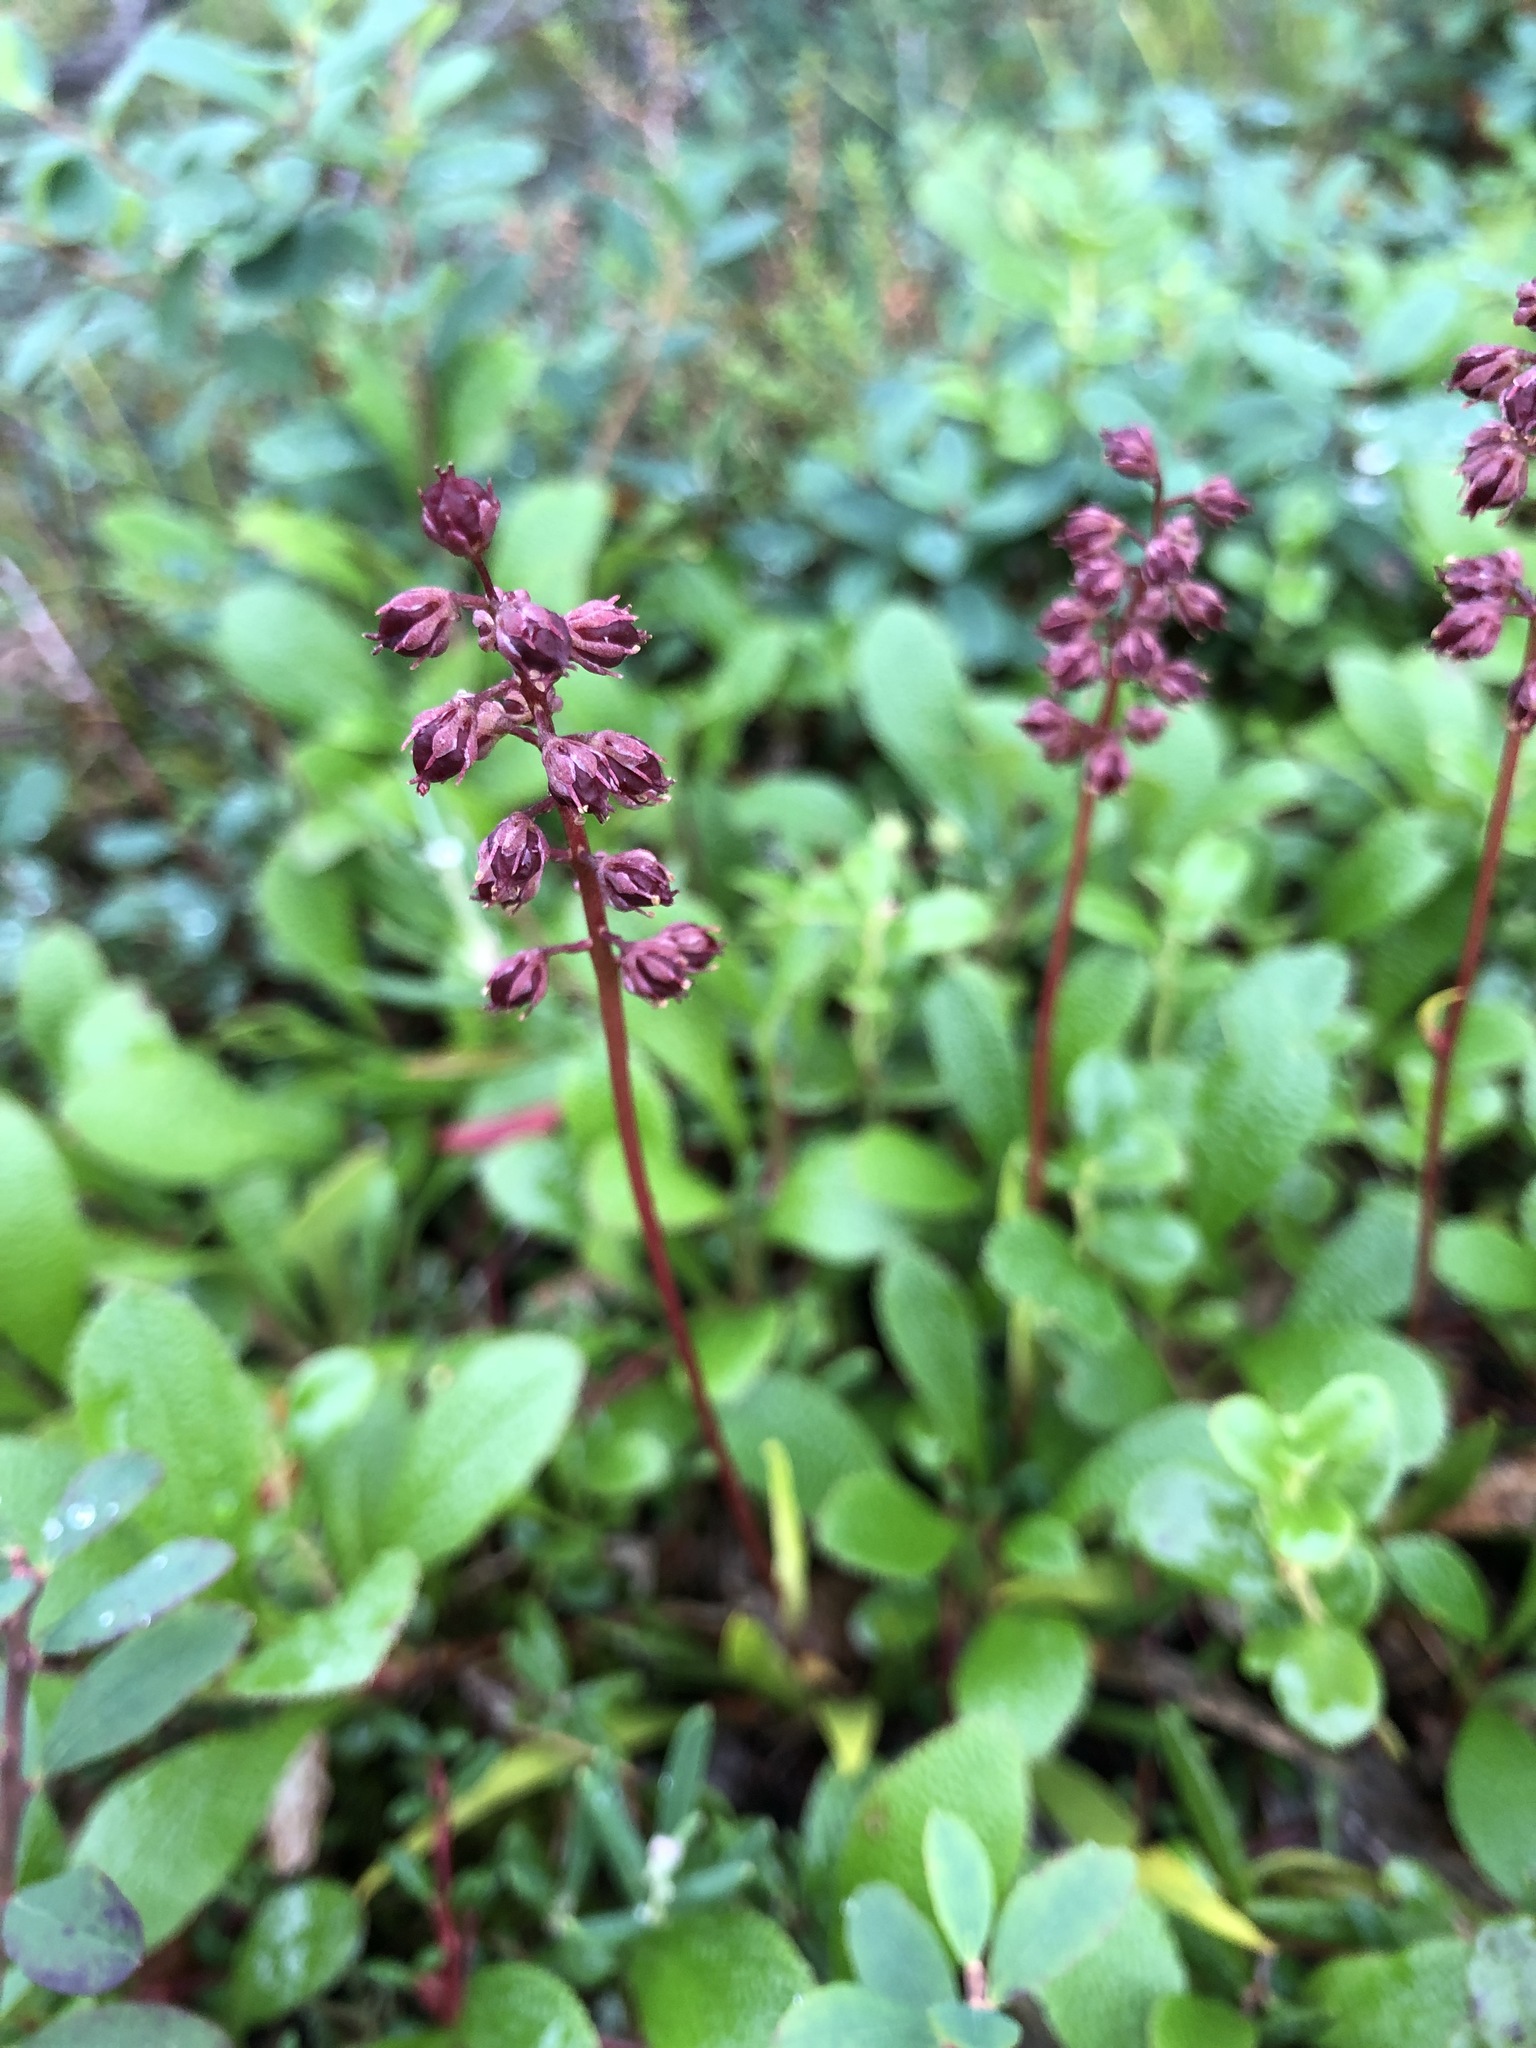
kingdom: Plantae
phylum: Tracheophyta
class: Liliopsida
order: Alismatales
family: Tofieldiaceae
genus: Tofieldia
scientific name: Tofieldia coccinea
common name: Northern false asphodel
